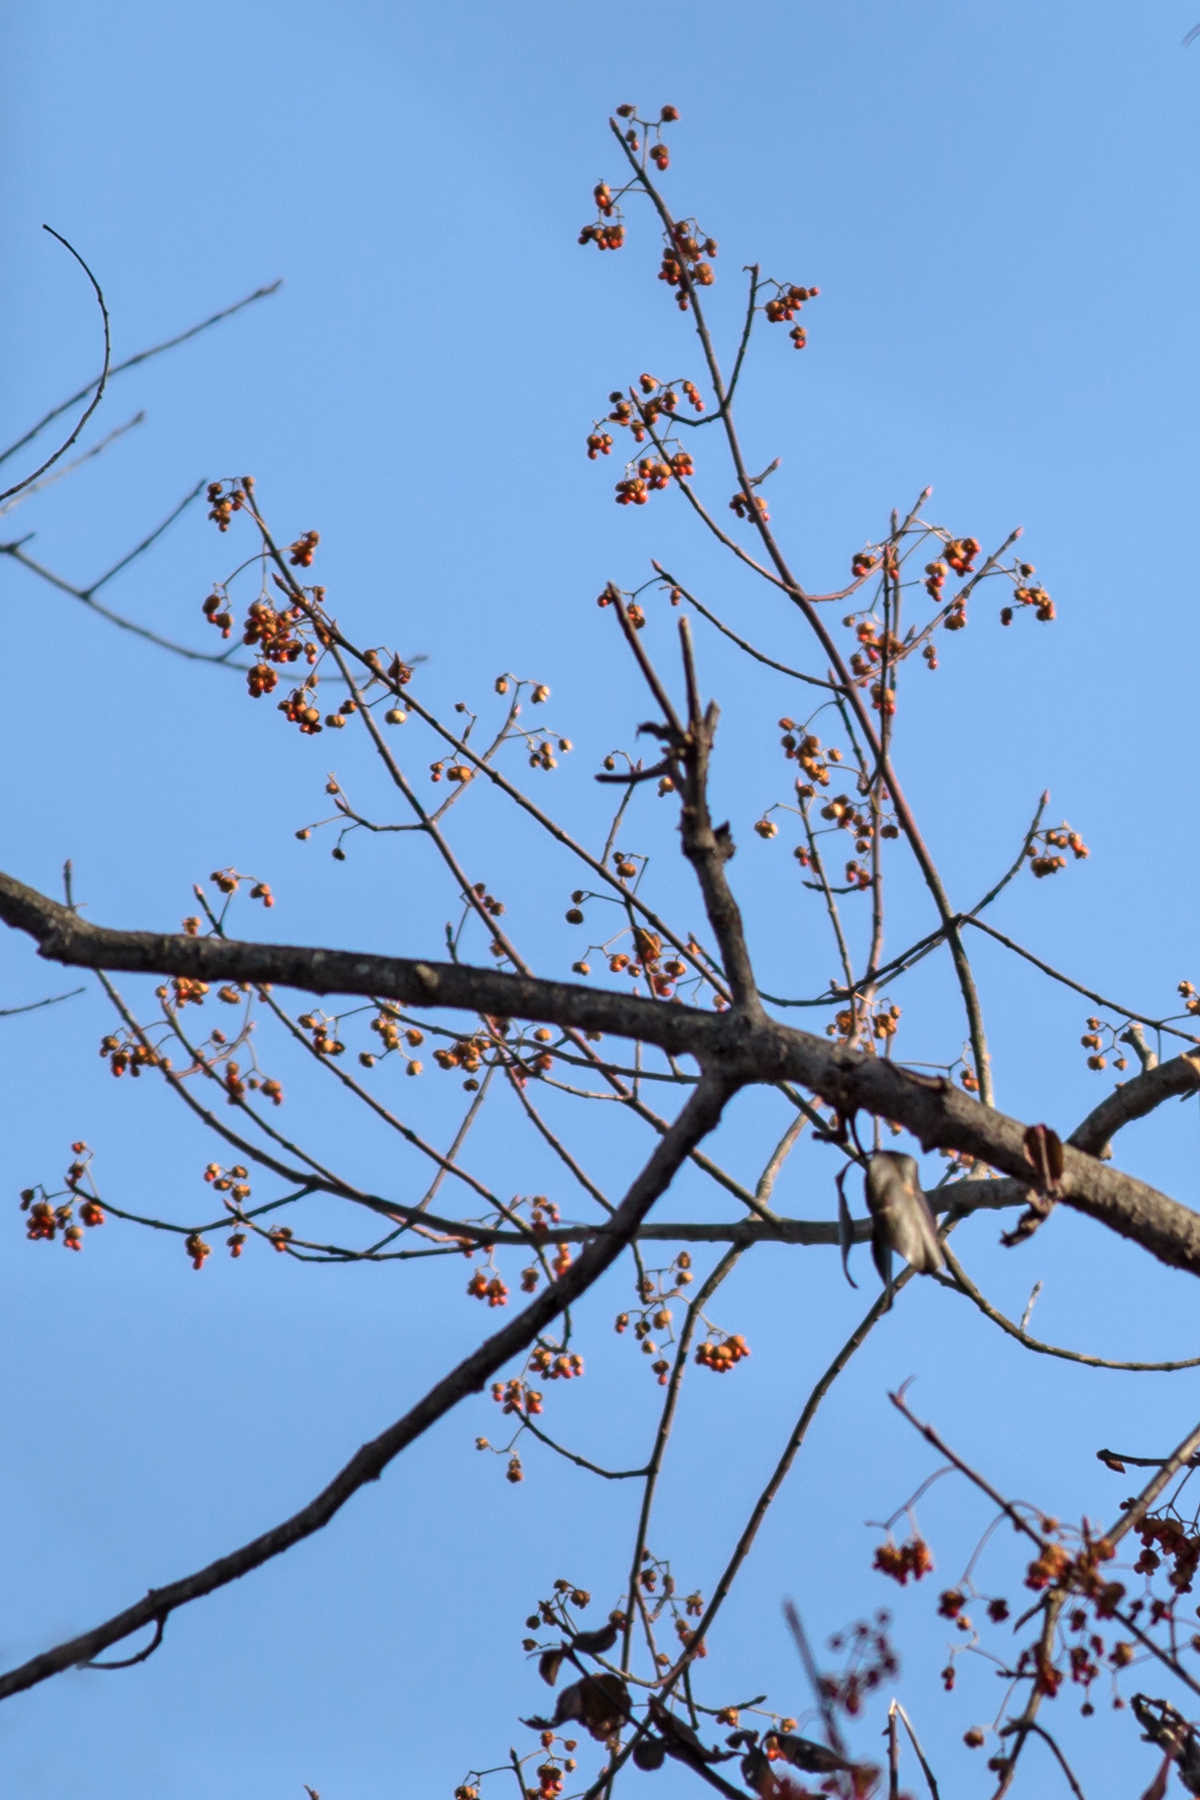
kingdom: Plantae
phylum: Tracheophyta
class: Magnoliopsida
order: Celastrales
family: Celastraceae
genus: Euonymus
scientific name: Euonymus fortunei
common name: Climbing euonymus
